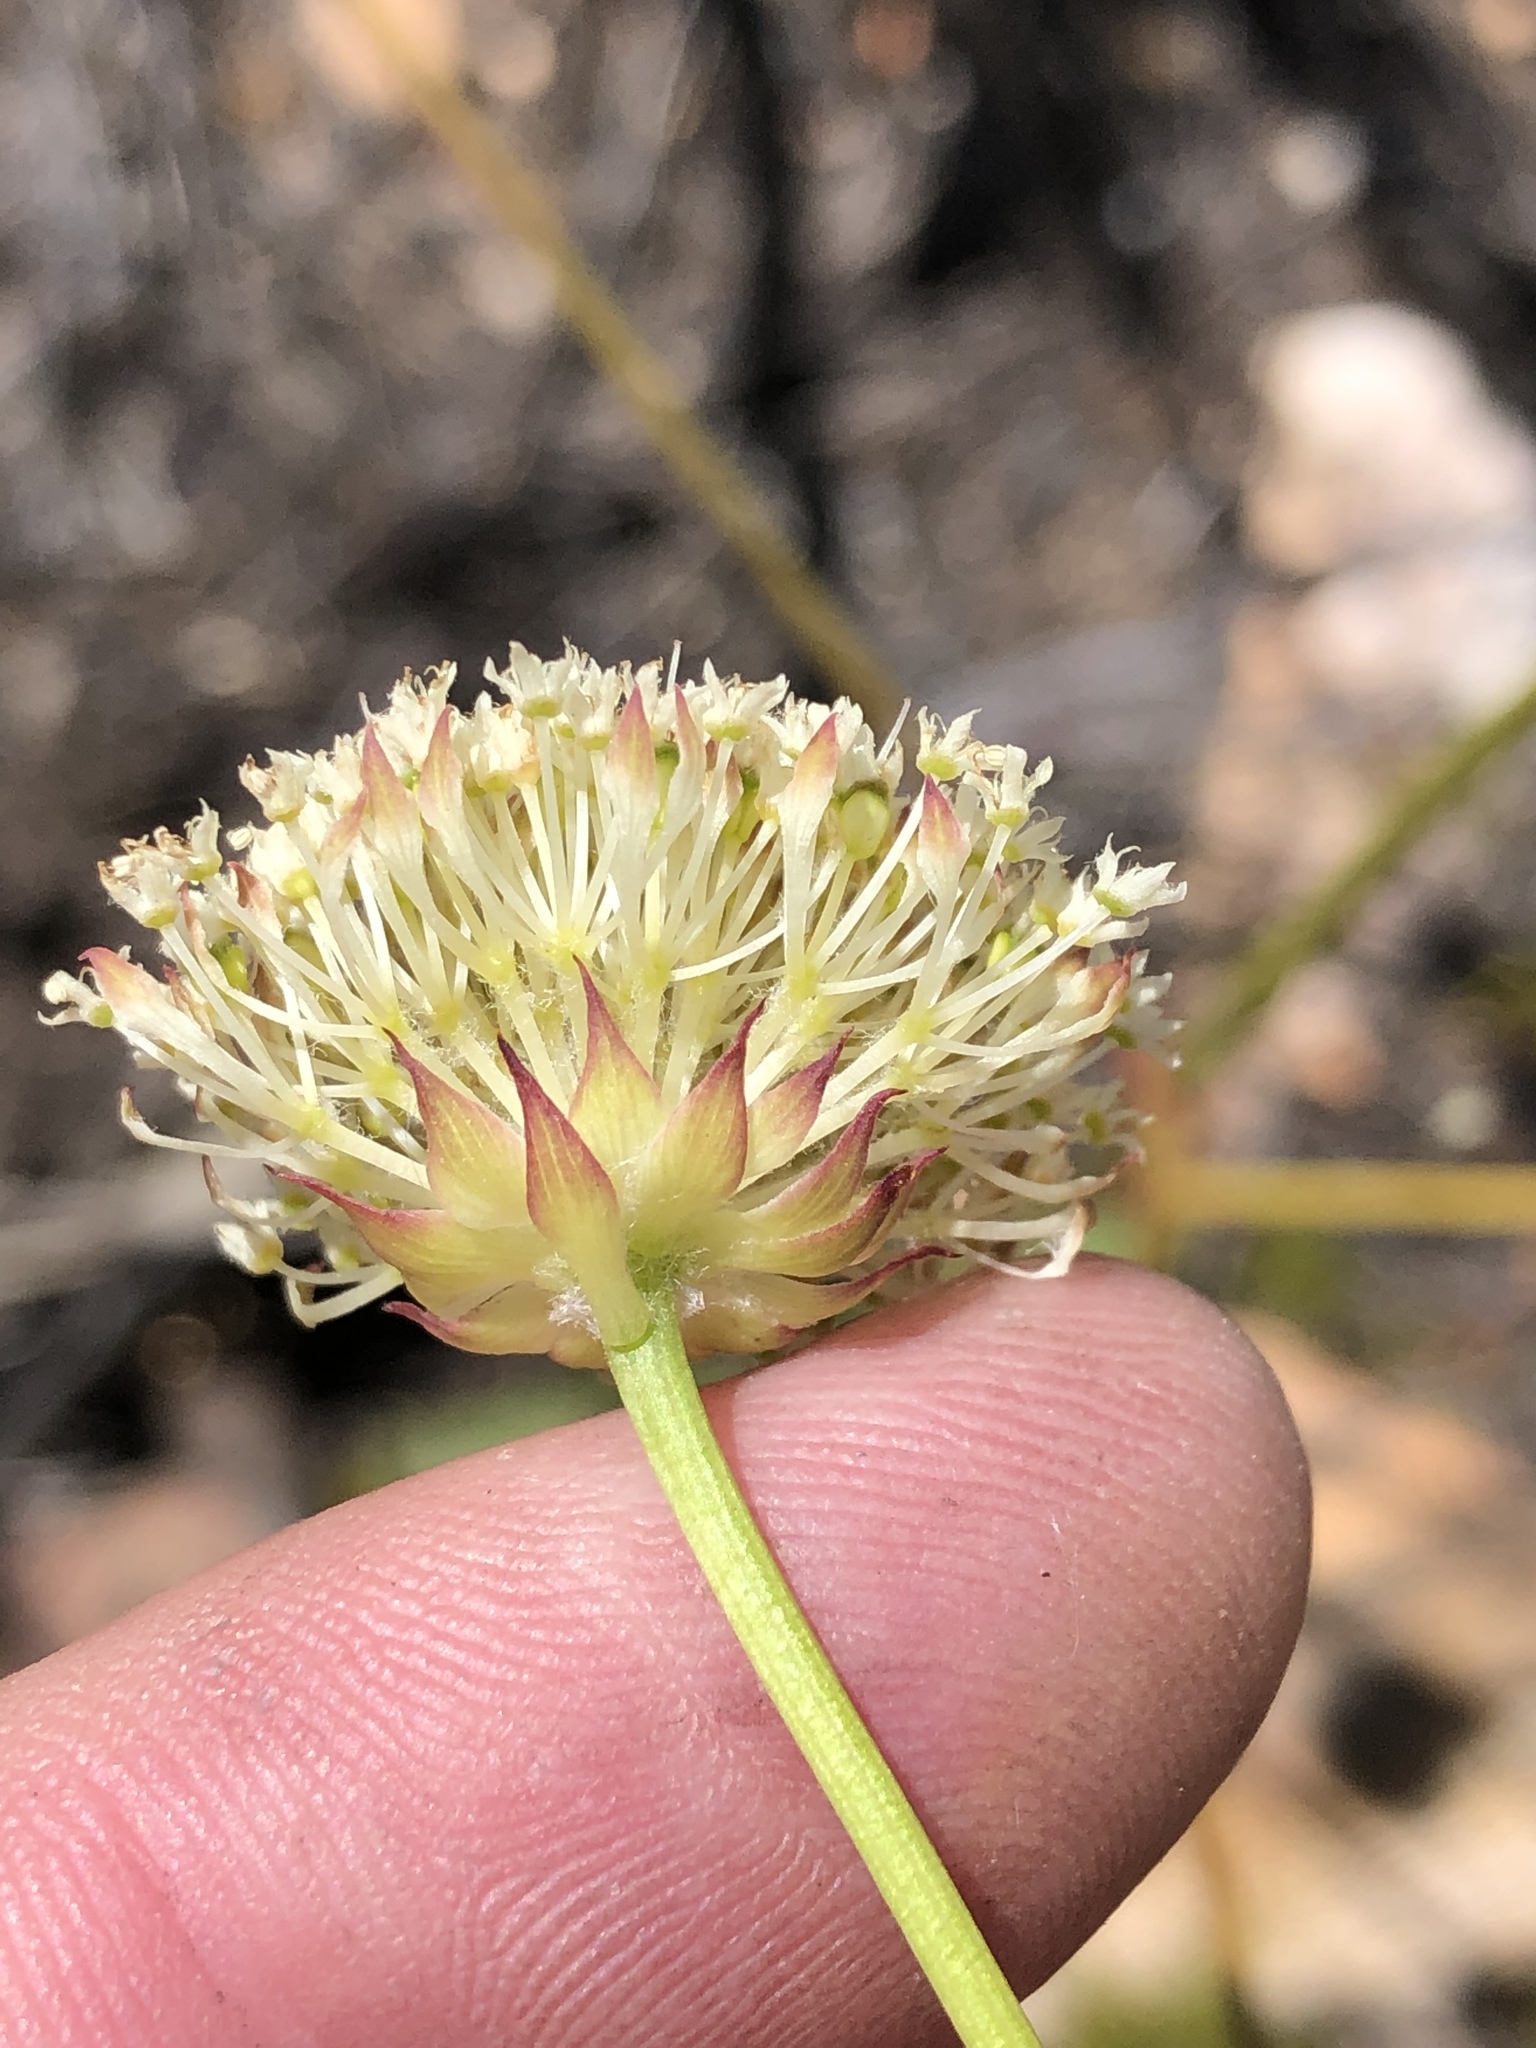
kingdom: Plantae
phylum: Tracheophyta
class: Magnoliopsida
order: Apiales
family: Apiaceae
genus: Hermas
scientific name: Hermas ciliata
